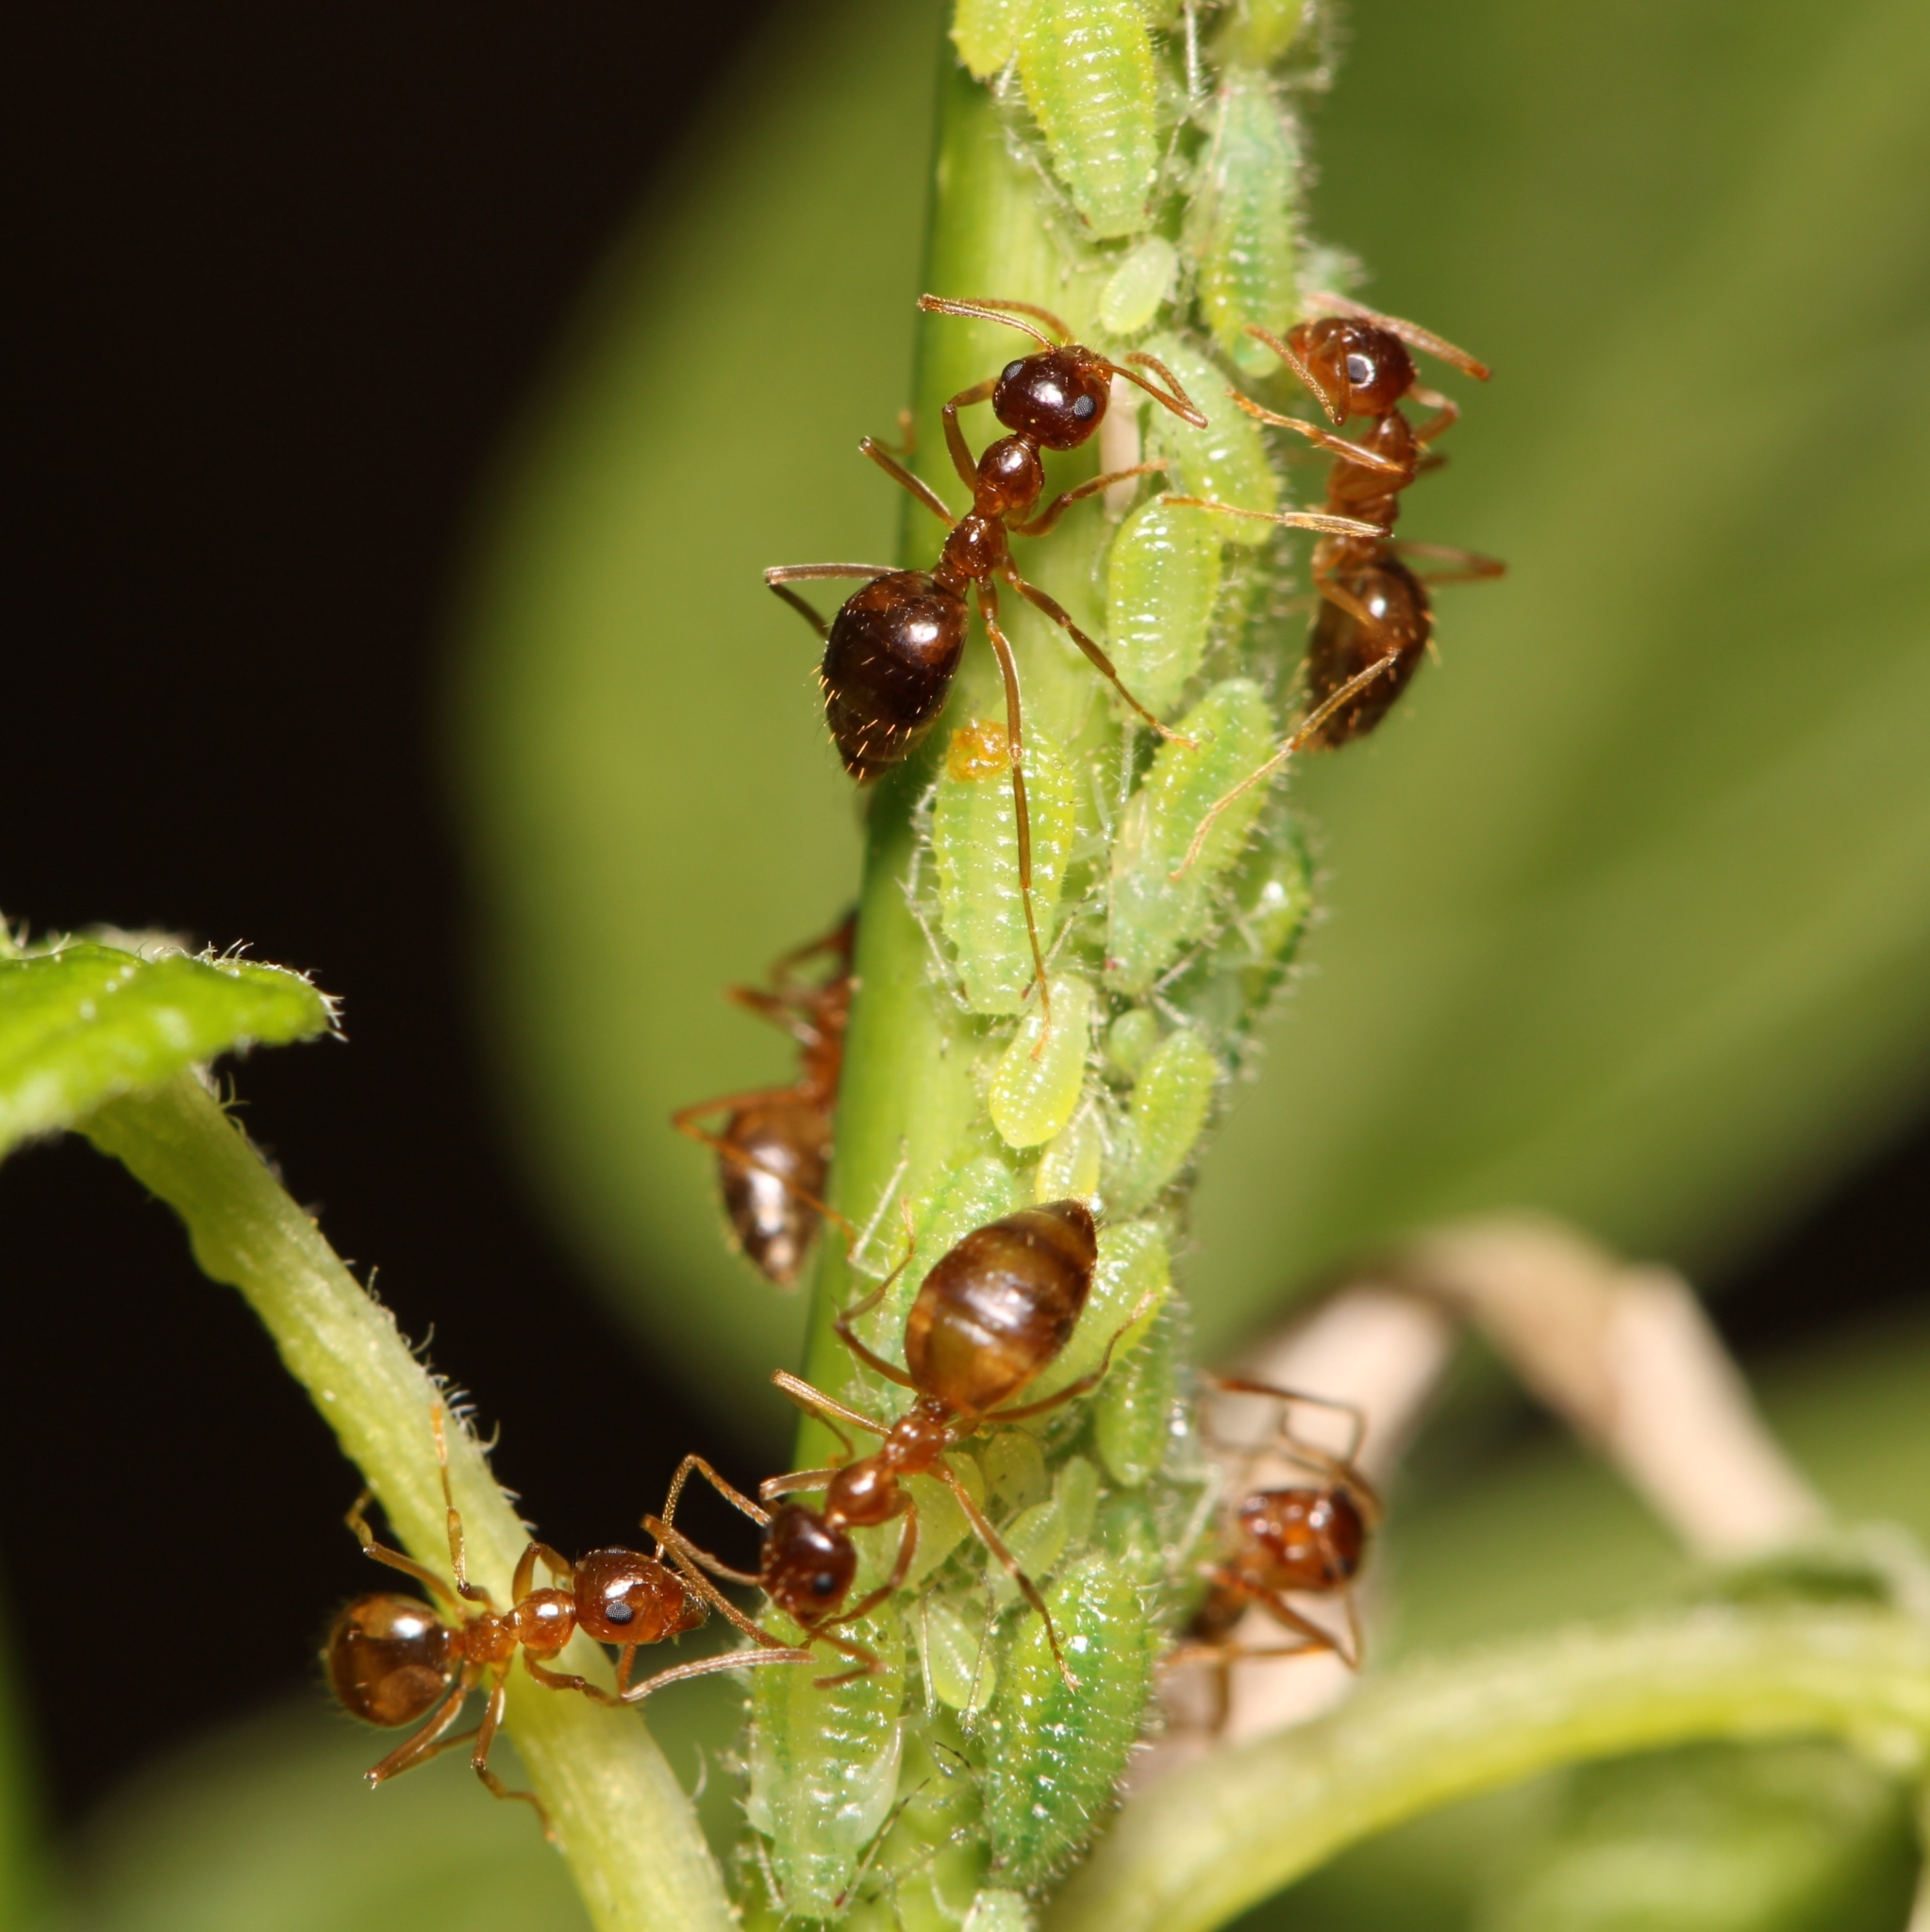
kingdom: Animalia
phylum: Arthropoda
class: Insecta
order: Hymenoptera
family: Formicidae
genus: Prenolepis
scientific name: Prenolepis imparis
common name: Small honey ant
